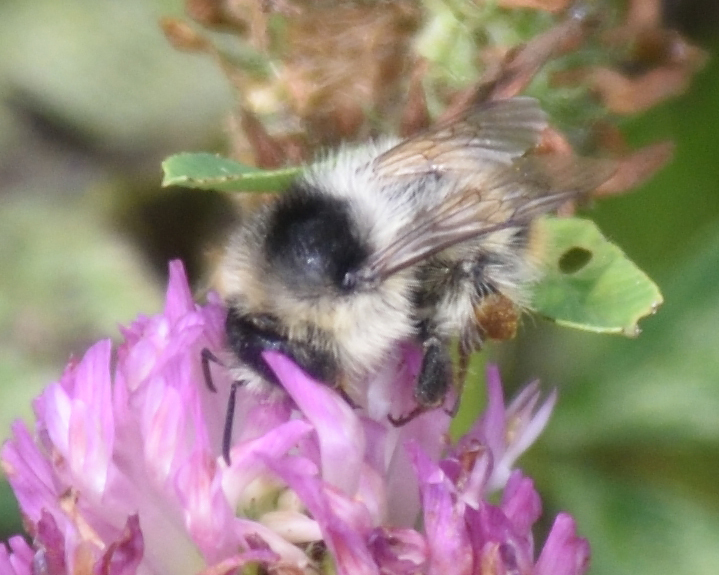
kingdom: Animalia
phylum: Arthropoda
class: Insecta
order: Hymenoptera
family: Apidae
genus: Bombus
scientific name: Bombus sylvarum
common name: Shrill carder bee
